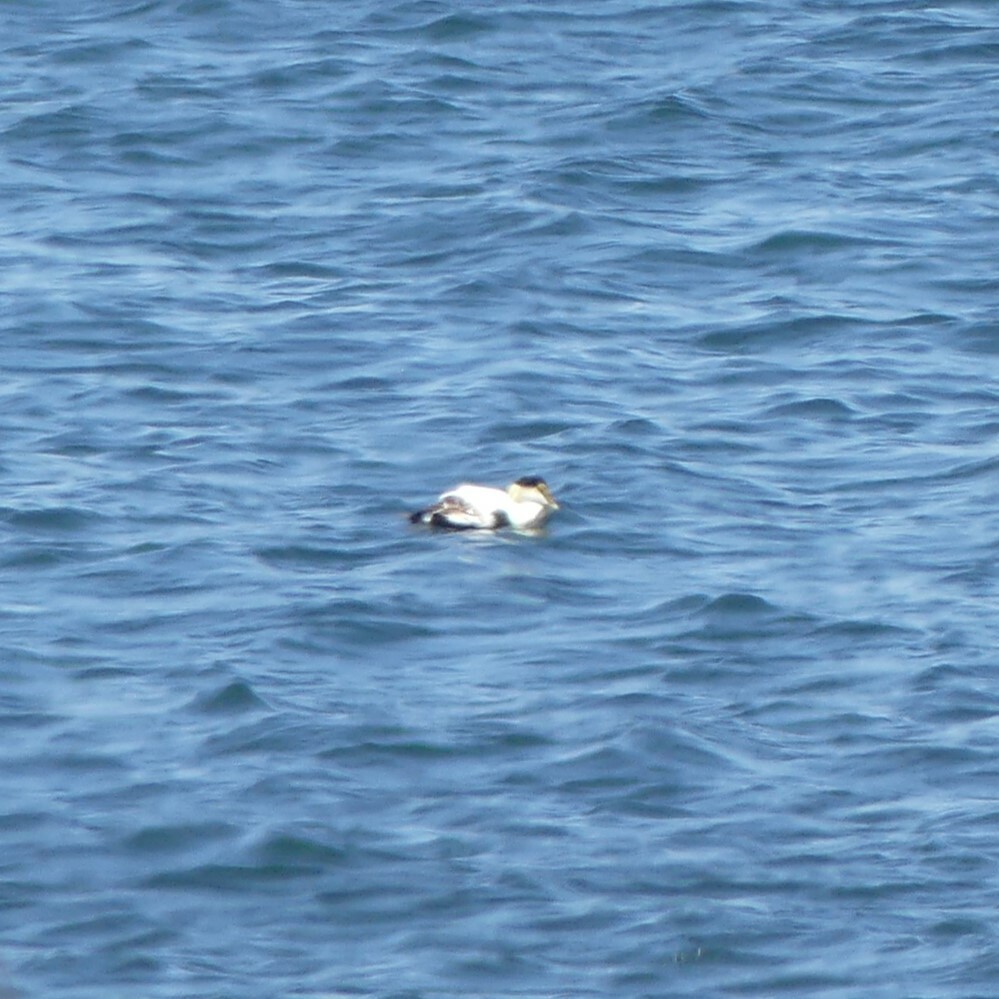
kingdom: Animalia
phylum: Chordata
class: Aves
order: Anseriformes
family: Anatidae
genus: Somateria
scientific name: Somateria mollissima
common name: Common eider
